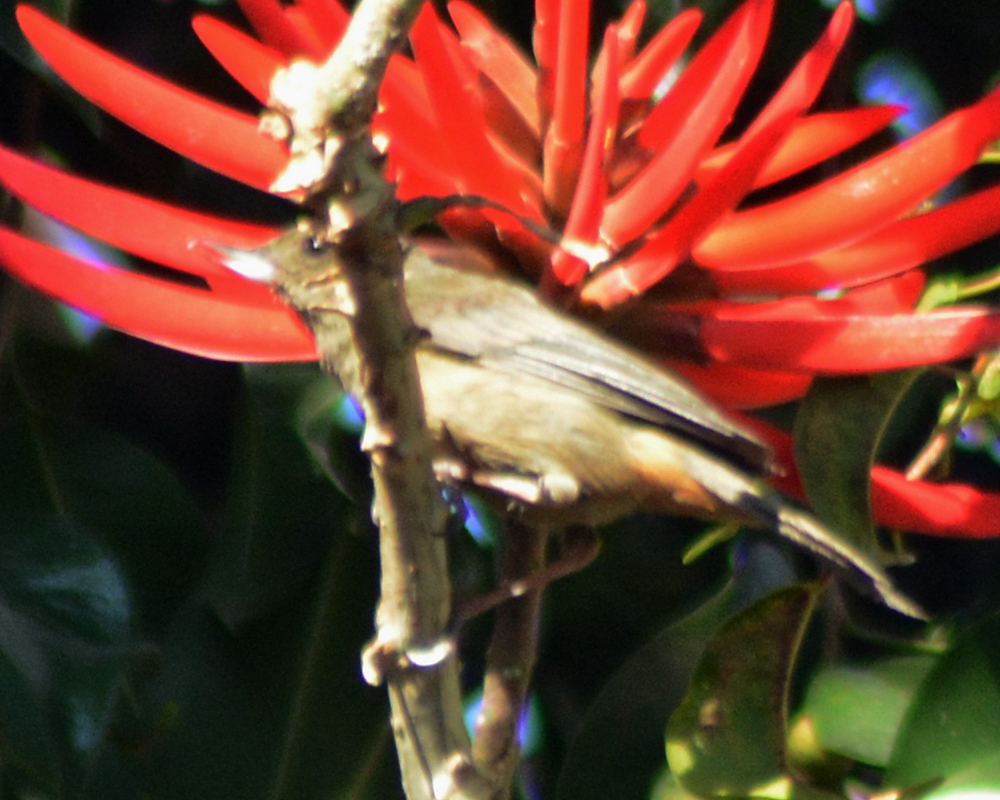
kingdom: Animalia
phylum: Chordata
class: Aves
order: Passeriformes
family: Thraupidae
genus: Diglossa
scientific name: Diglossa baritula
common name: Cinnamon-bellied flowerpiercer
